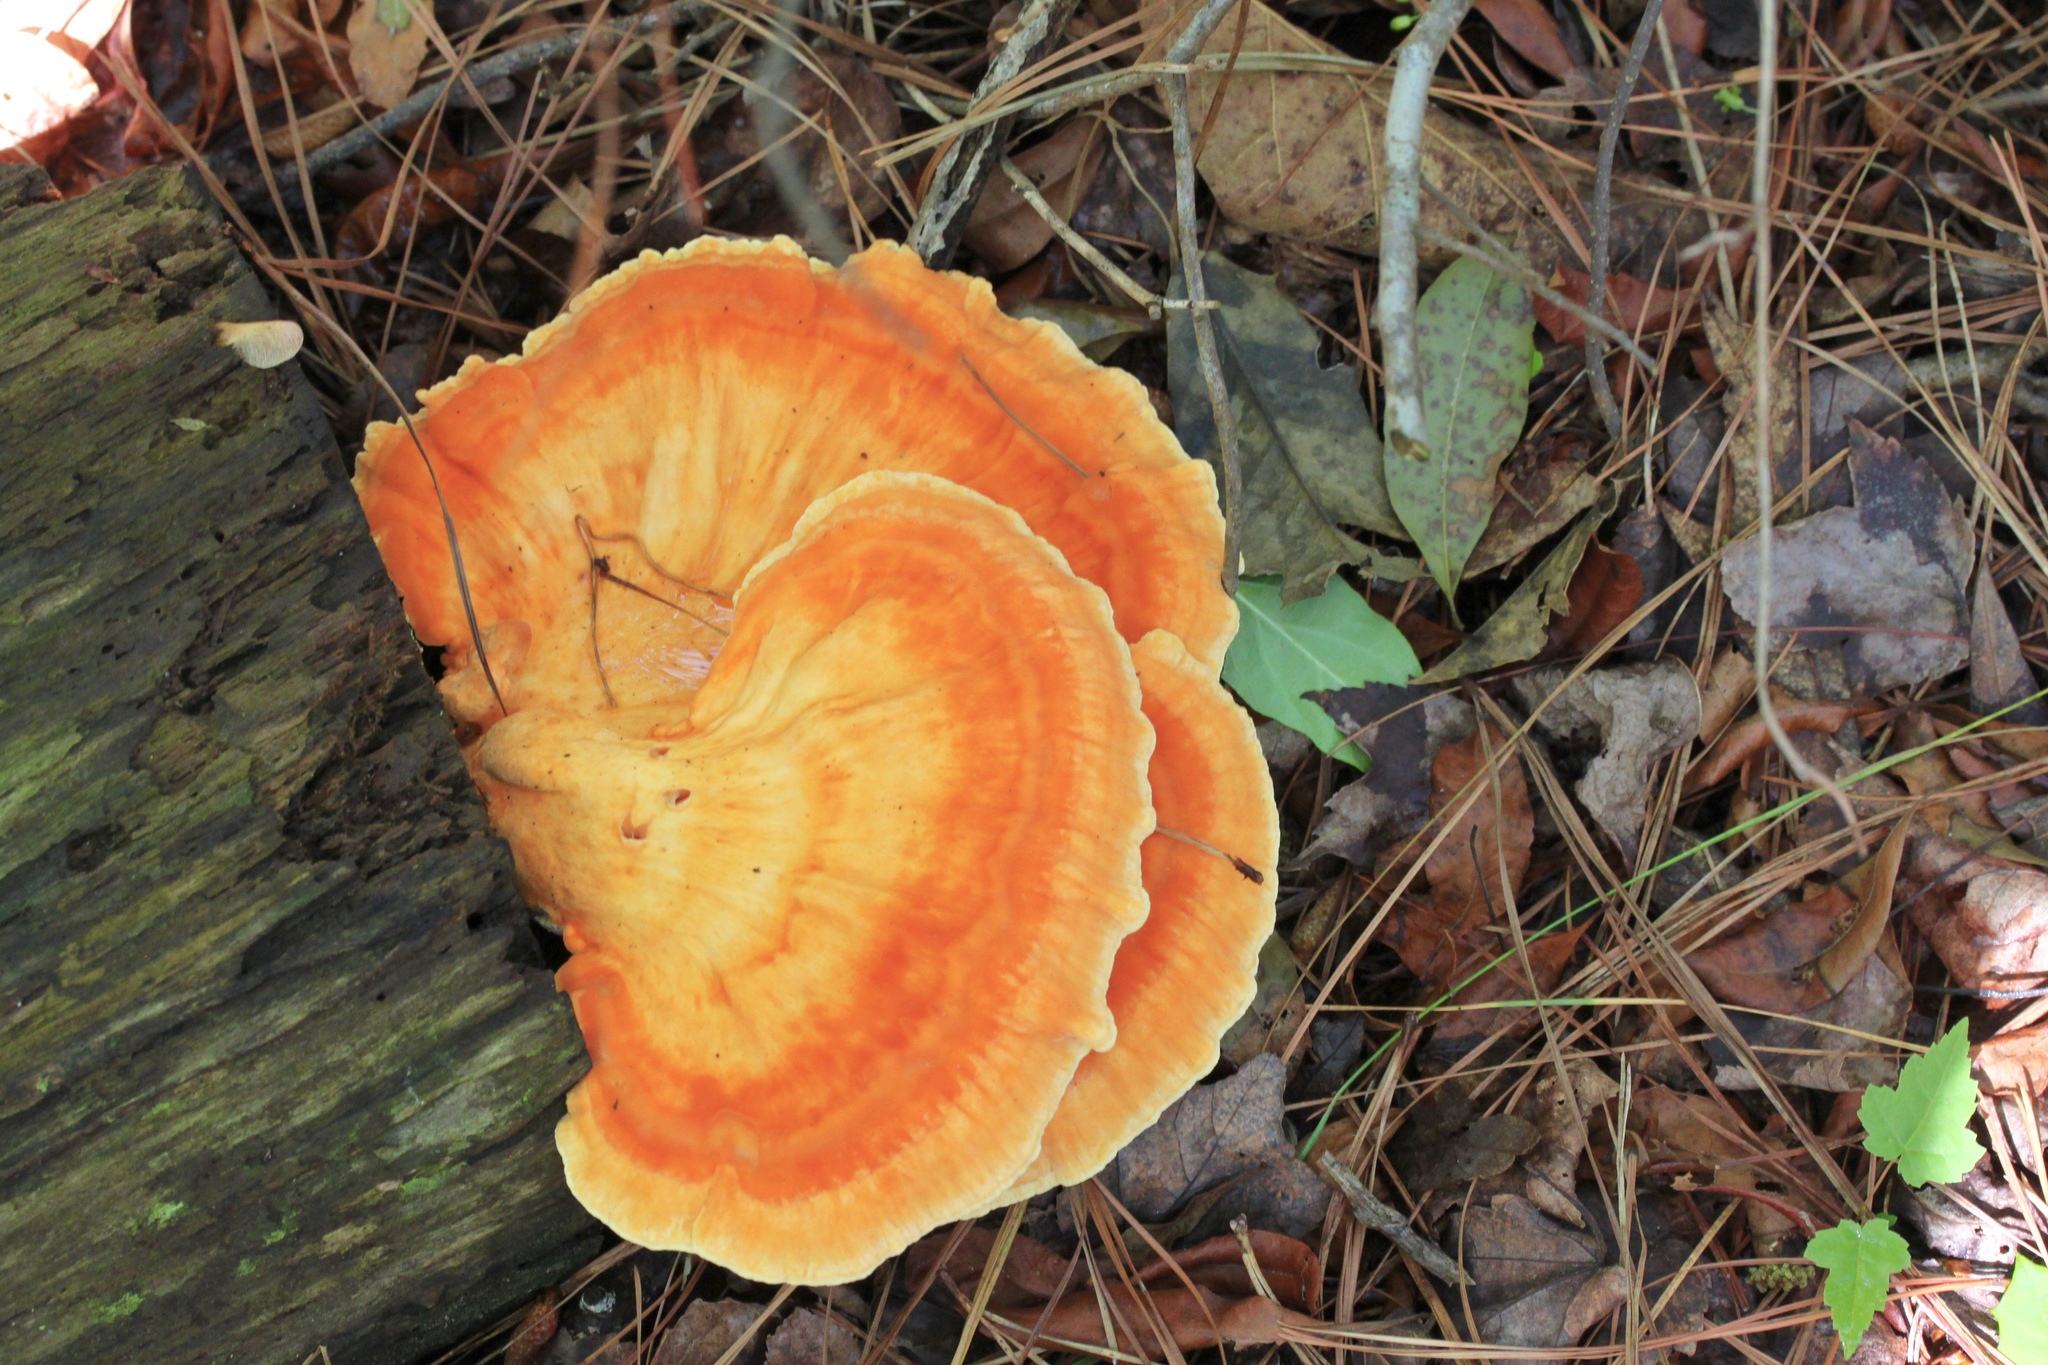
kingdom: Fungi
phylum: Basidiomycota
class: Agaricomycetes
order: Polyporales
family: Laetiporaceae
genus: Laetiporus
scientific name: Laetiporus sulphureus
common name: Chicken of the woods
